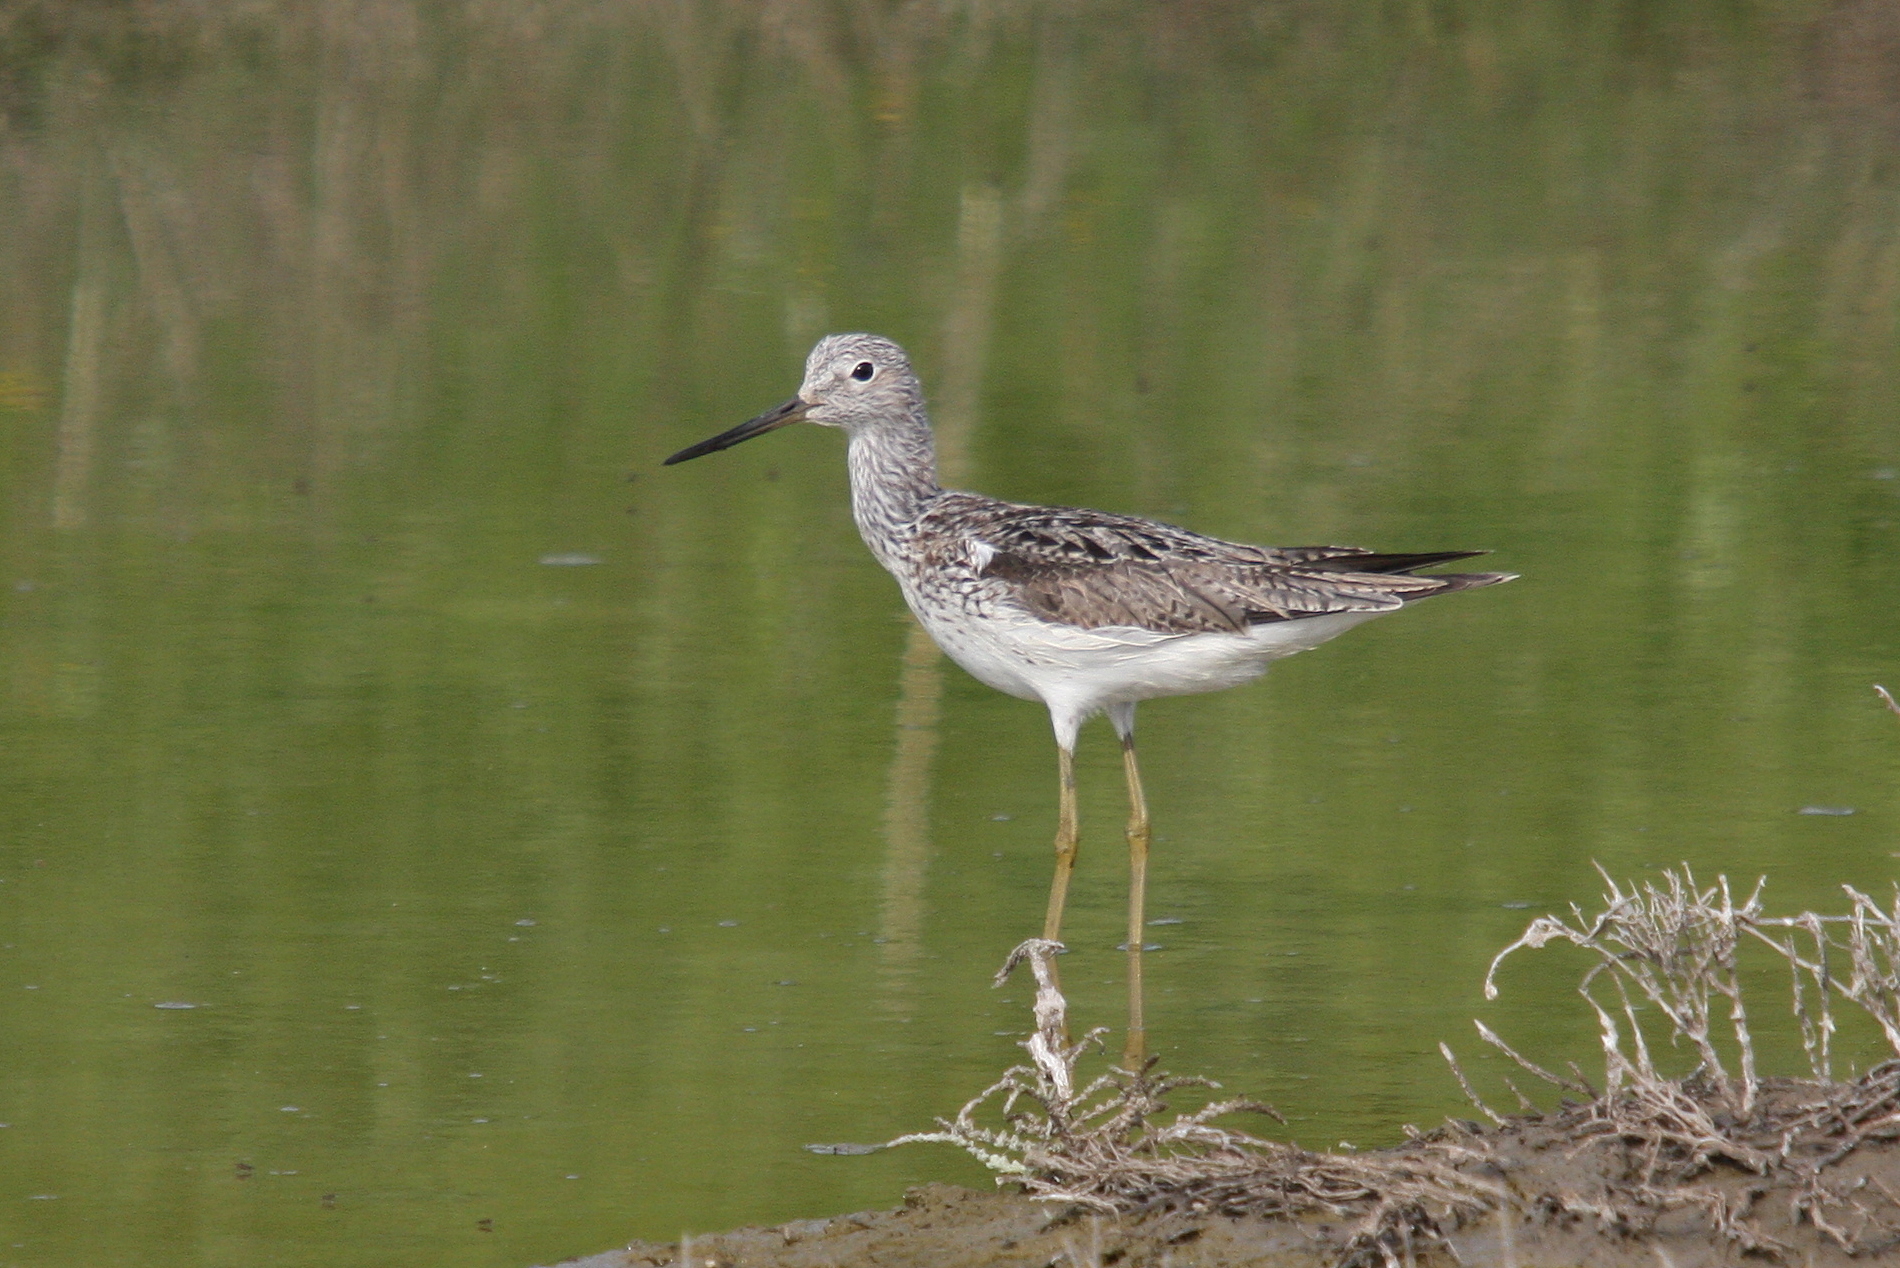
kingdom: Animalia
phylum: Chordata
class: Aves
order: Charadriiformes
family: Scolopacidae
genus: Tringa
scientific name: Tringa nebularia
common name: Common greenshank
